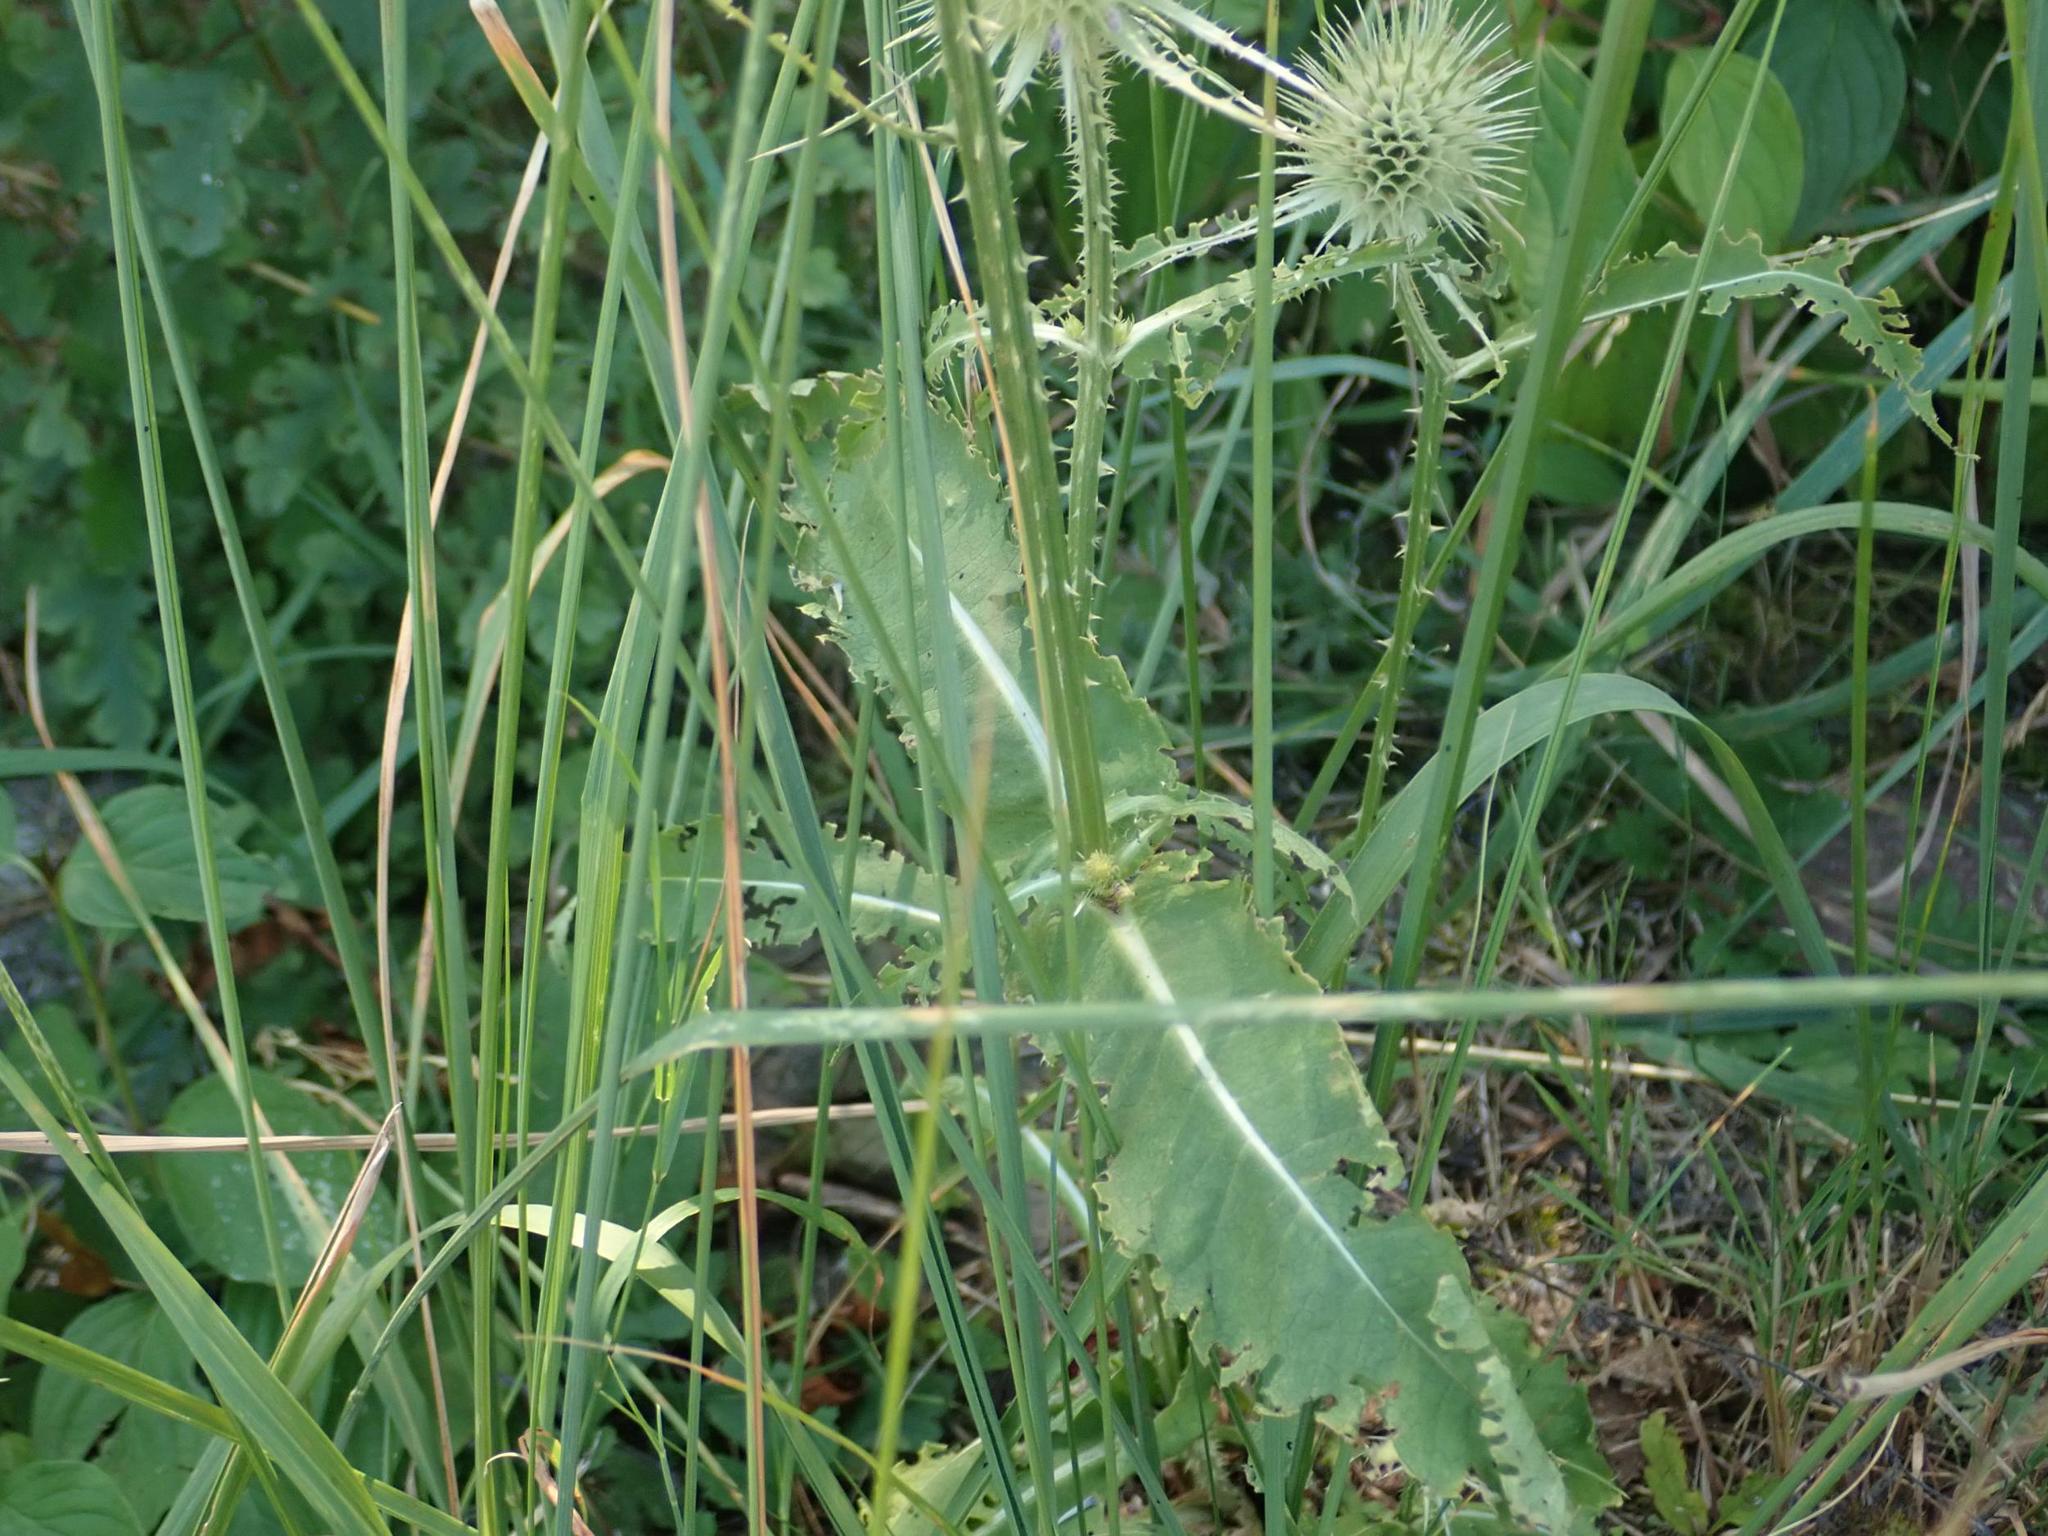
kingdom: Plantae
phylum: Tracheophyta
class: Magnoliopsida
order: Dipsacales
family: Caprifoliaceae
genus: Dipsacus
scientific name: Dipsacus fullonum
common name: Teasel
